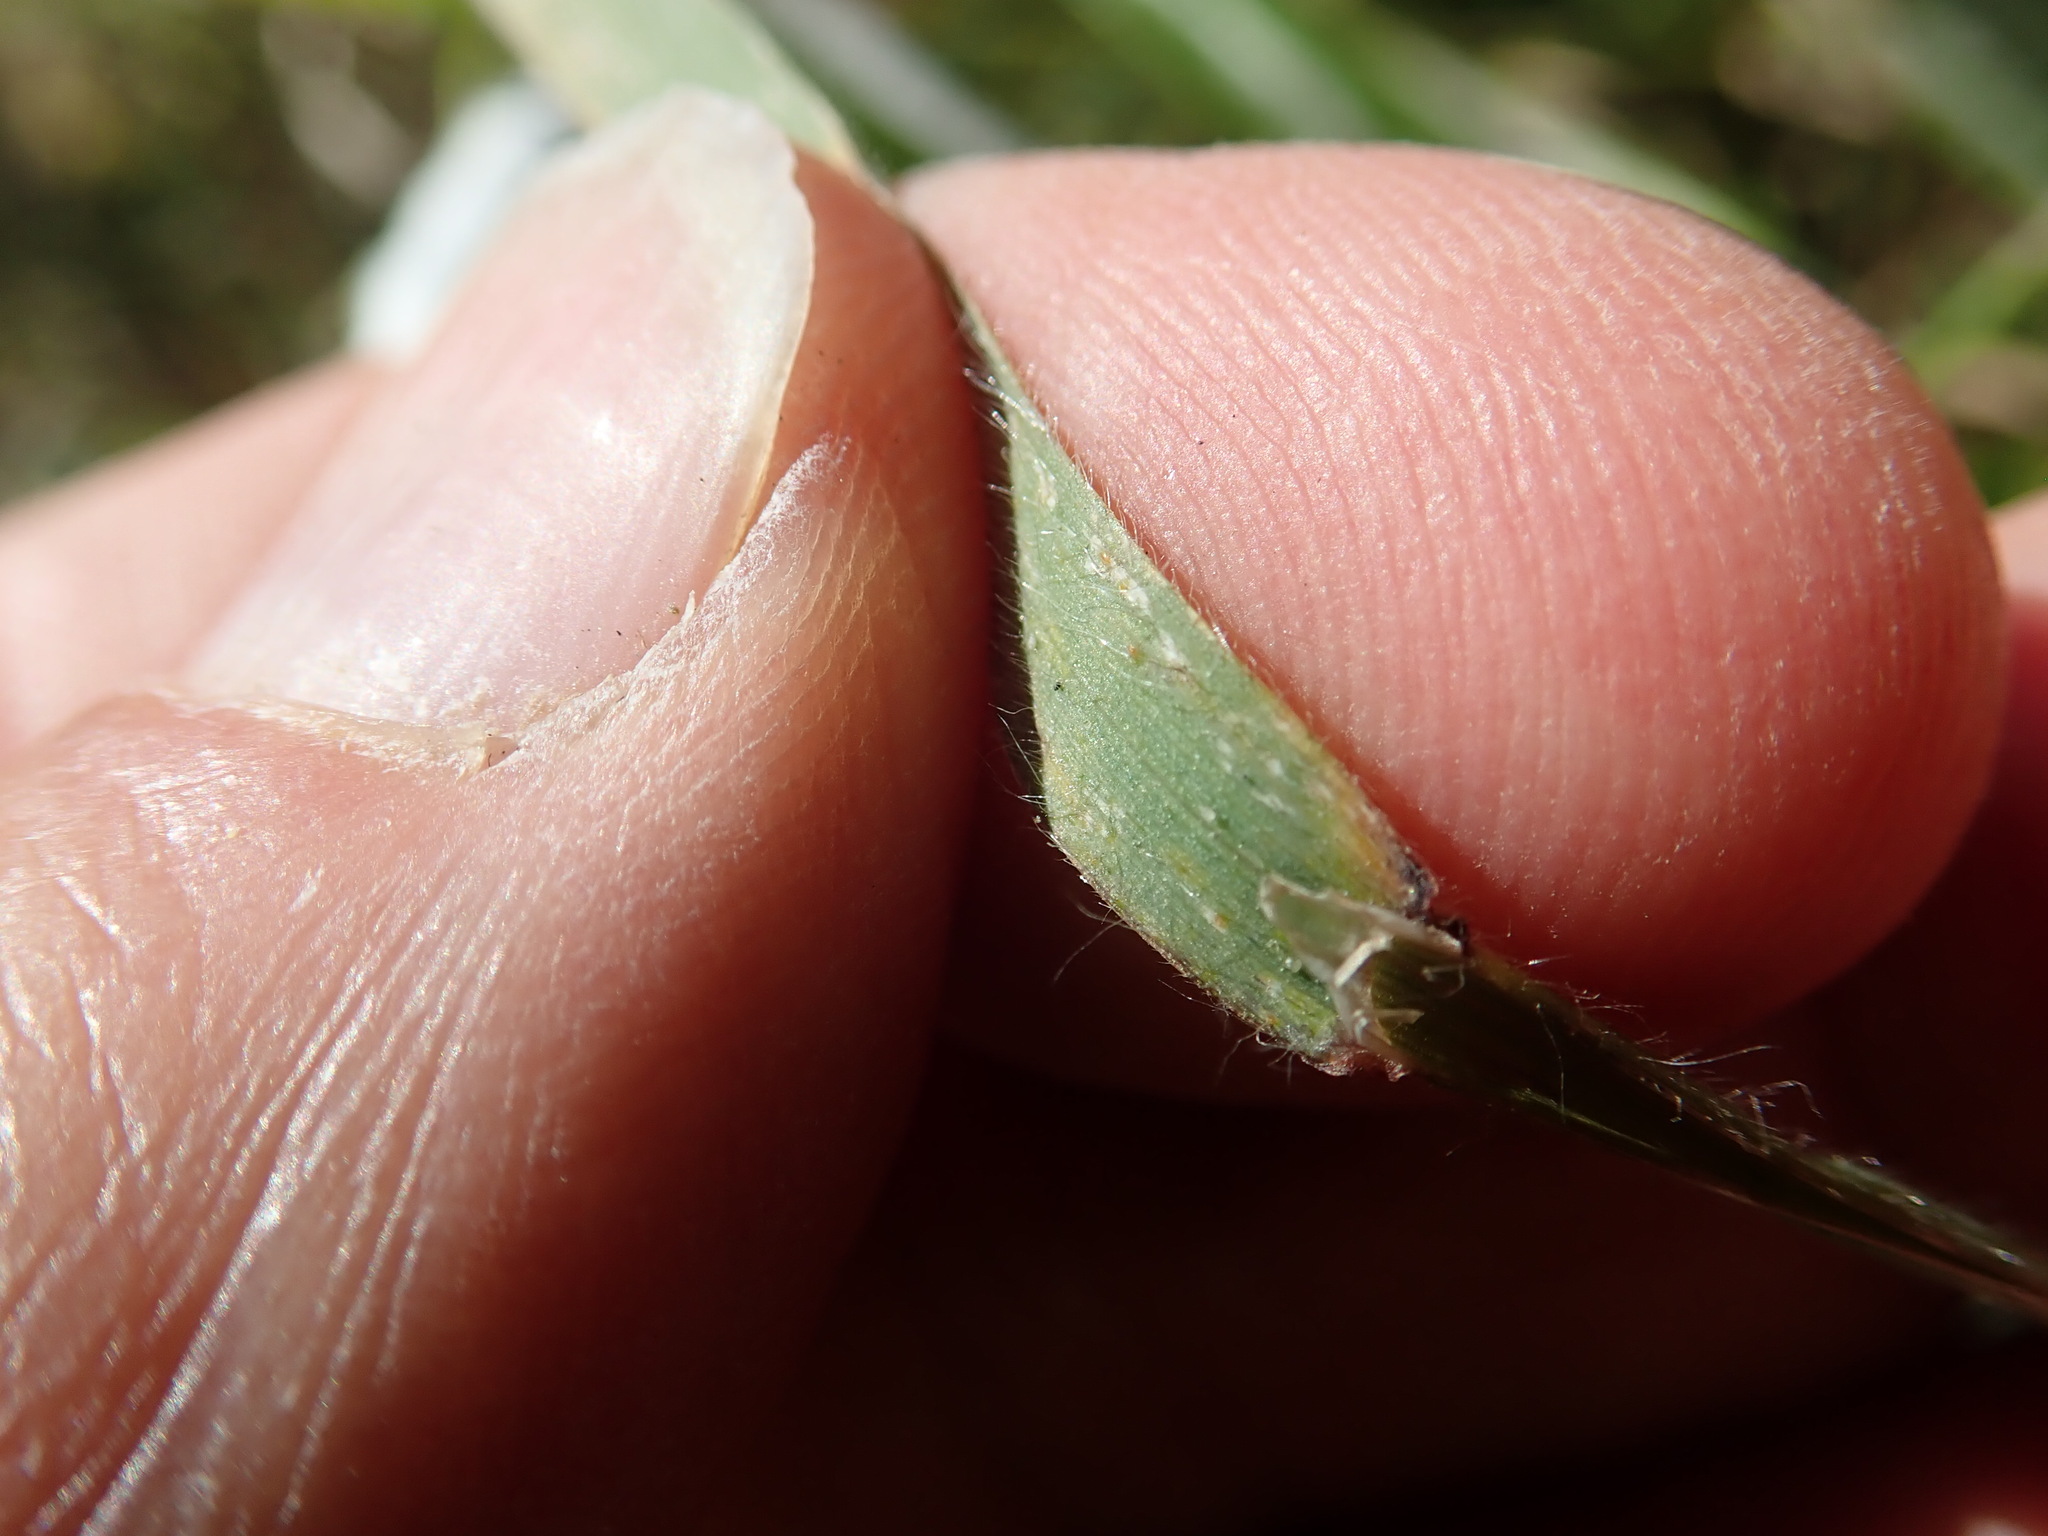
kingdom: Plantae
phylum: Tracheophyta
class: Liliopsida
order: Poales
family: Poaceae
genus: Bromus
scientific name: Bromus diandrus
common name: Ripgut brome
